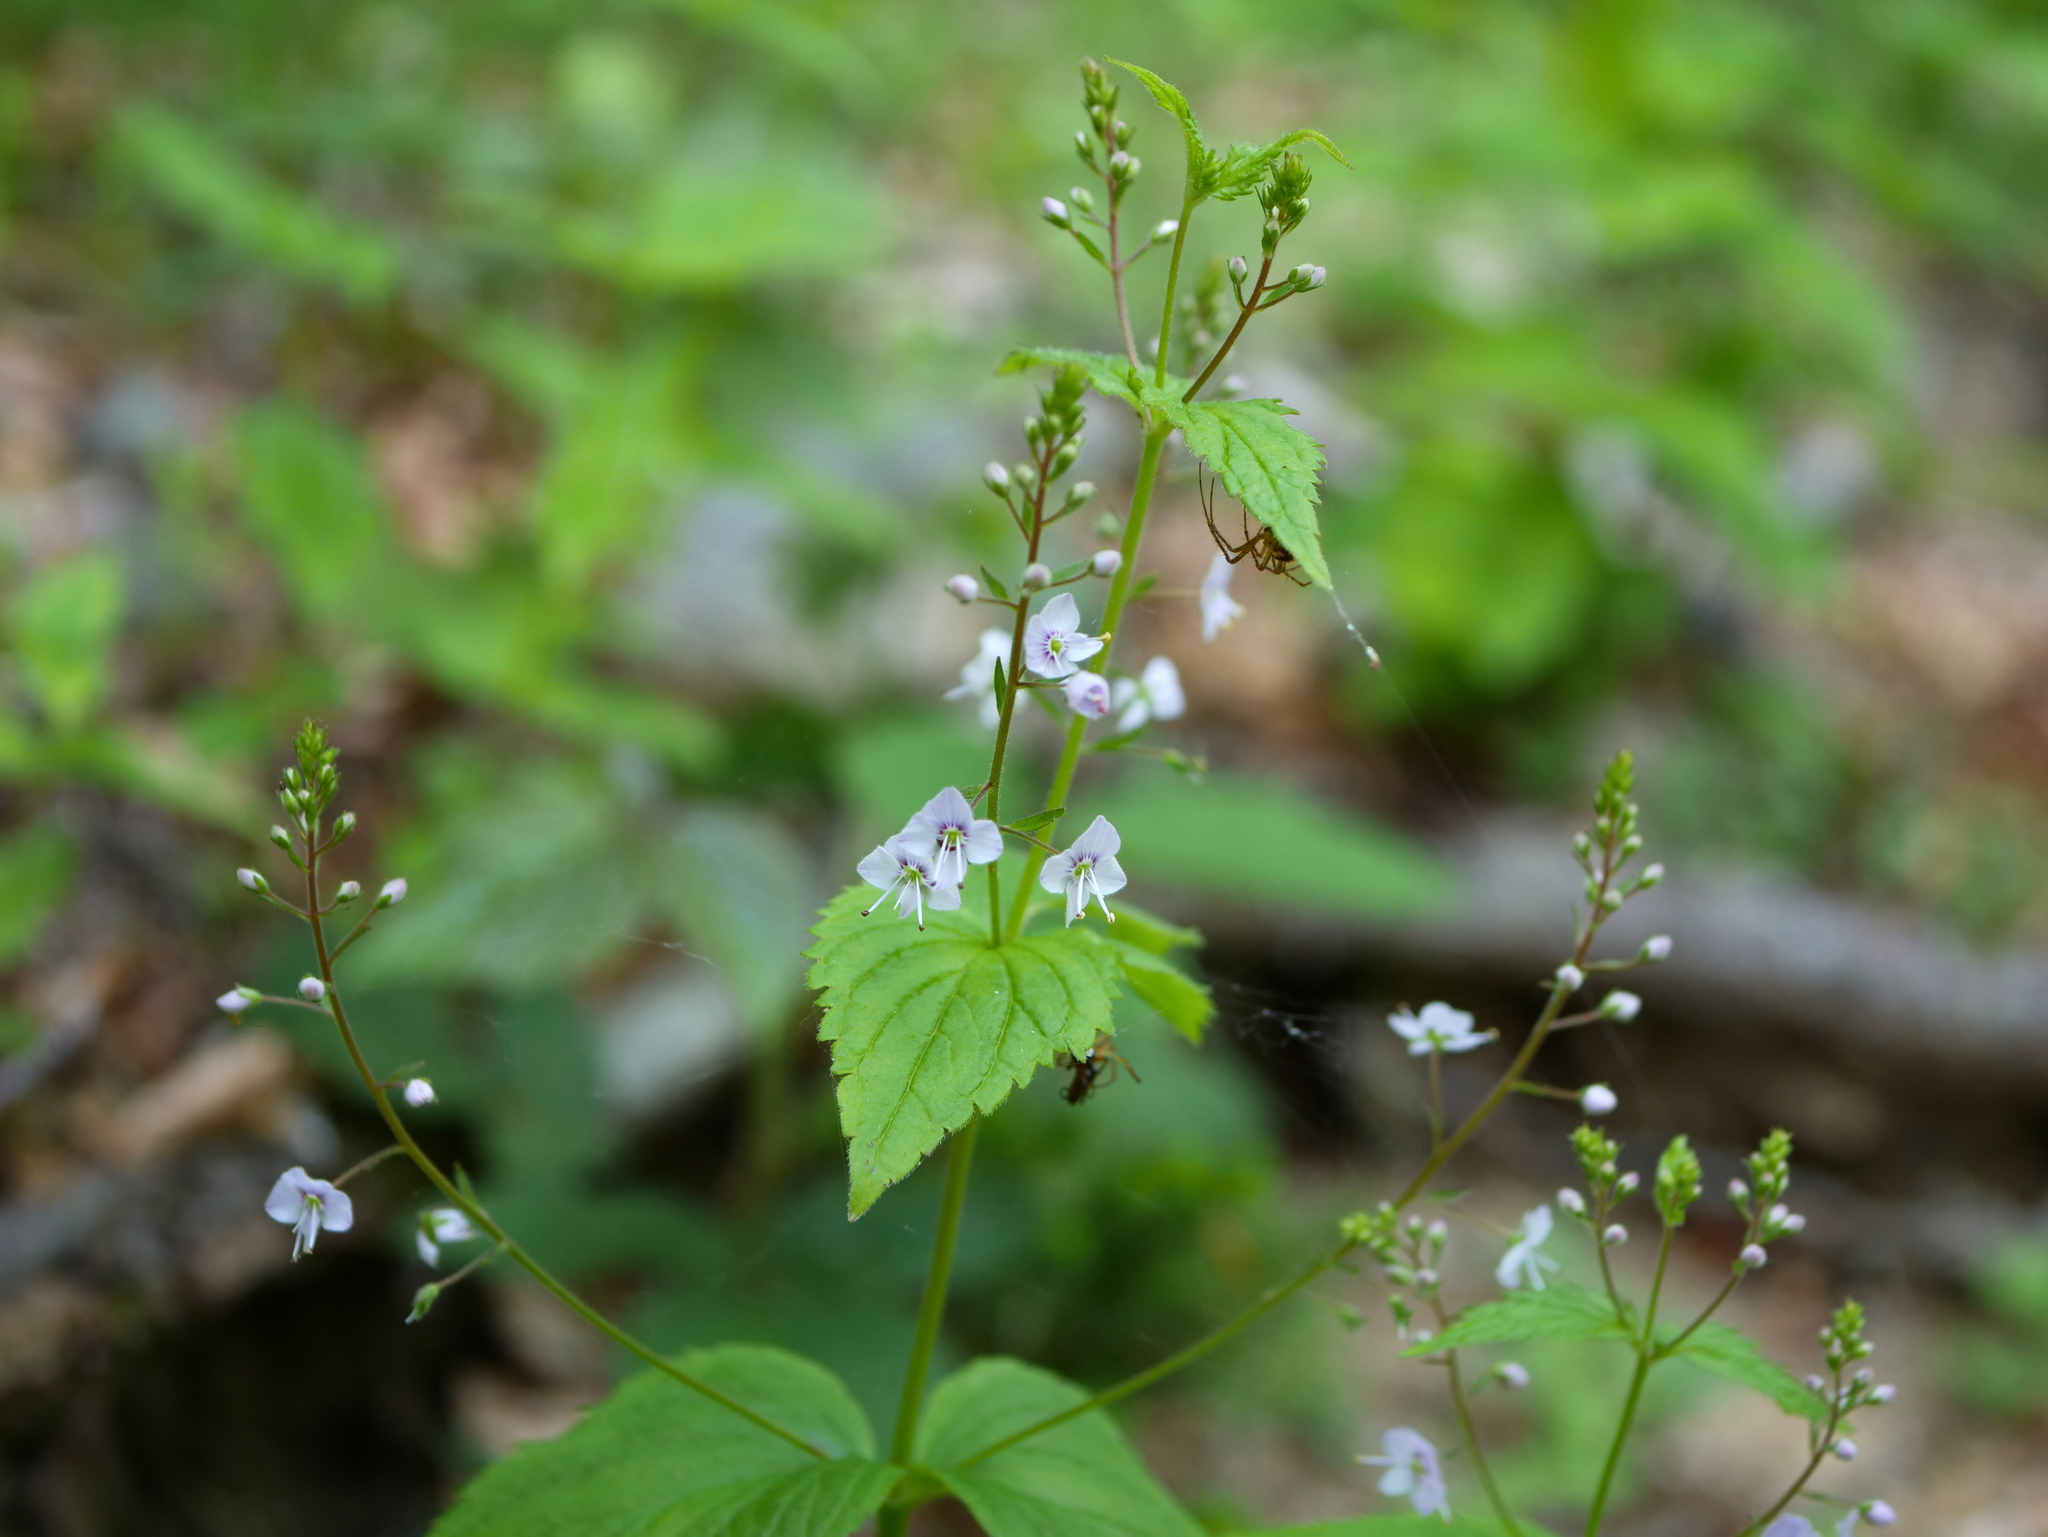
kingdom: Plantae
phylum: Tracheophyta
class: Magnoliopsida
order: Lamiales
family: Plantaginaceae
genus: Veronica
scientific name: Veronica urticifolia
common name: Nettle-leaf speedwell
